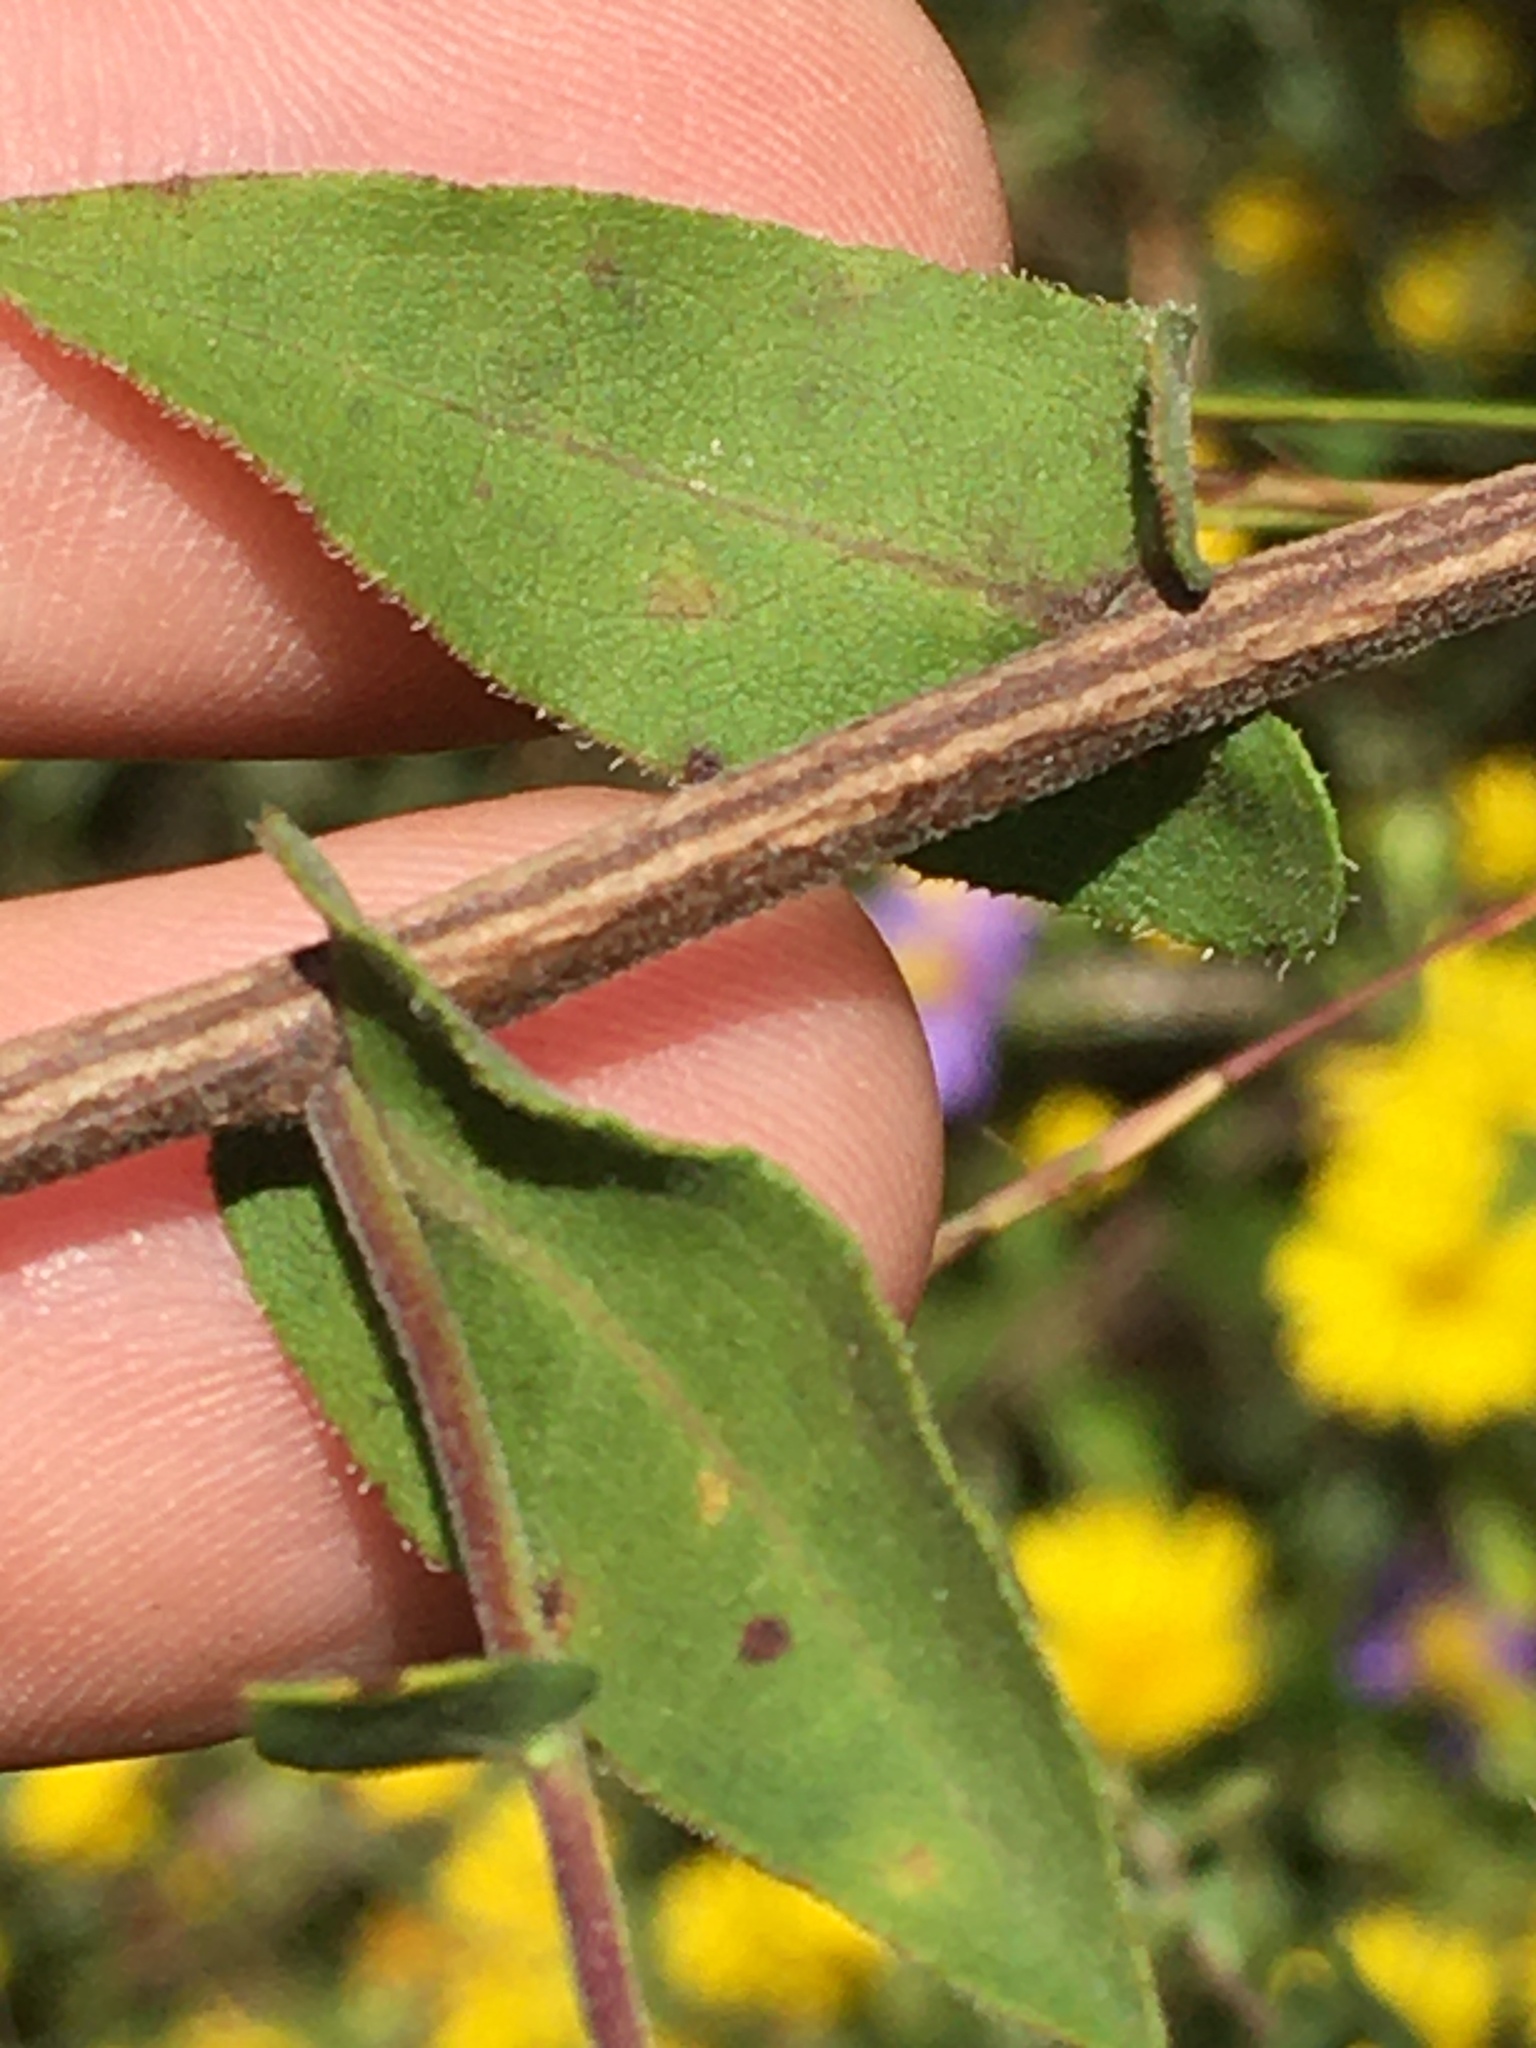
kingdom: Plantae
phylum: Tracheophyta
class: Magnoliopsida
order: Asterales
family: Asteraceae
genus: Symphyotrichum
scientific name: Symphyotrichum patens
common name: Late purple aster
